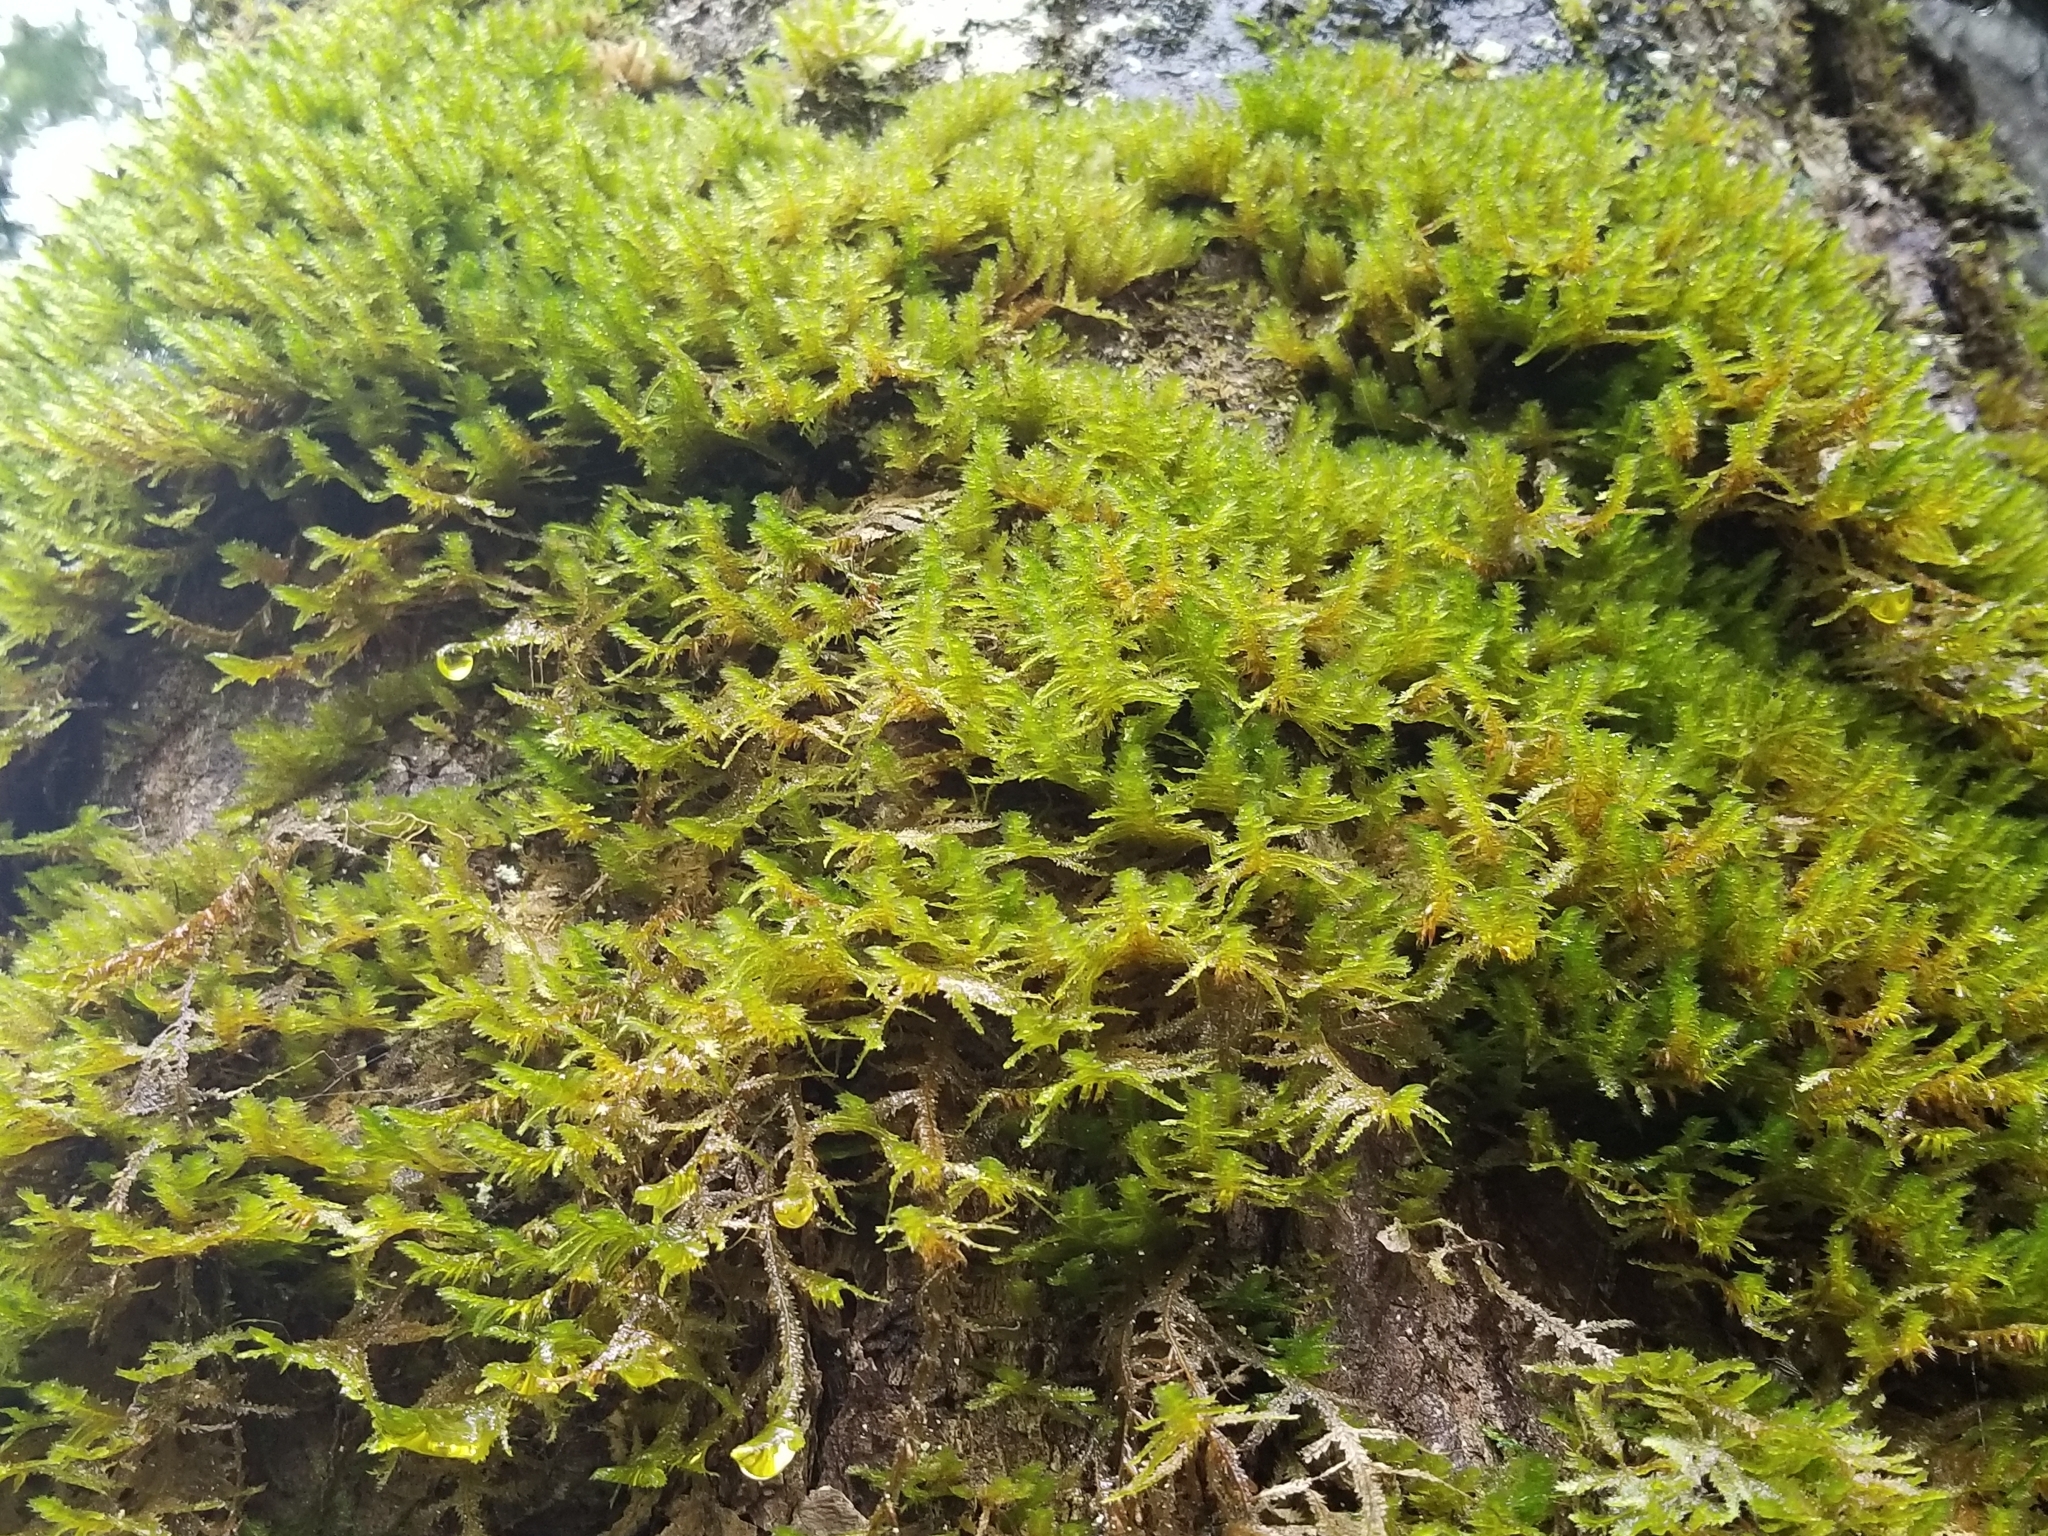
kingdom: Plantae
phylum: Bryophyta
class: Bryopsida
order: Hypnales
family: Neckeraceae
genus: Neckera
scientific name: Neckera pennata
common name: Feathery neckera
